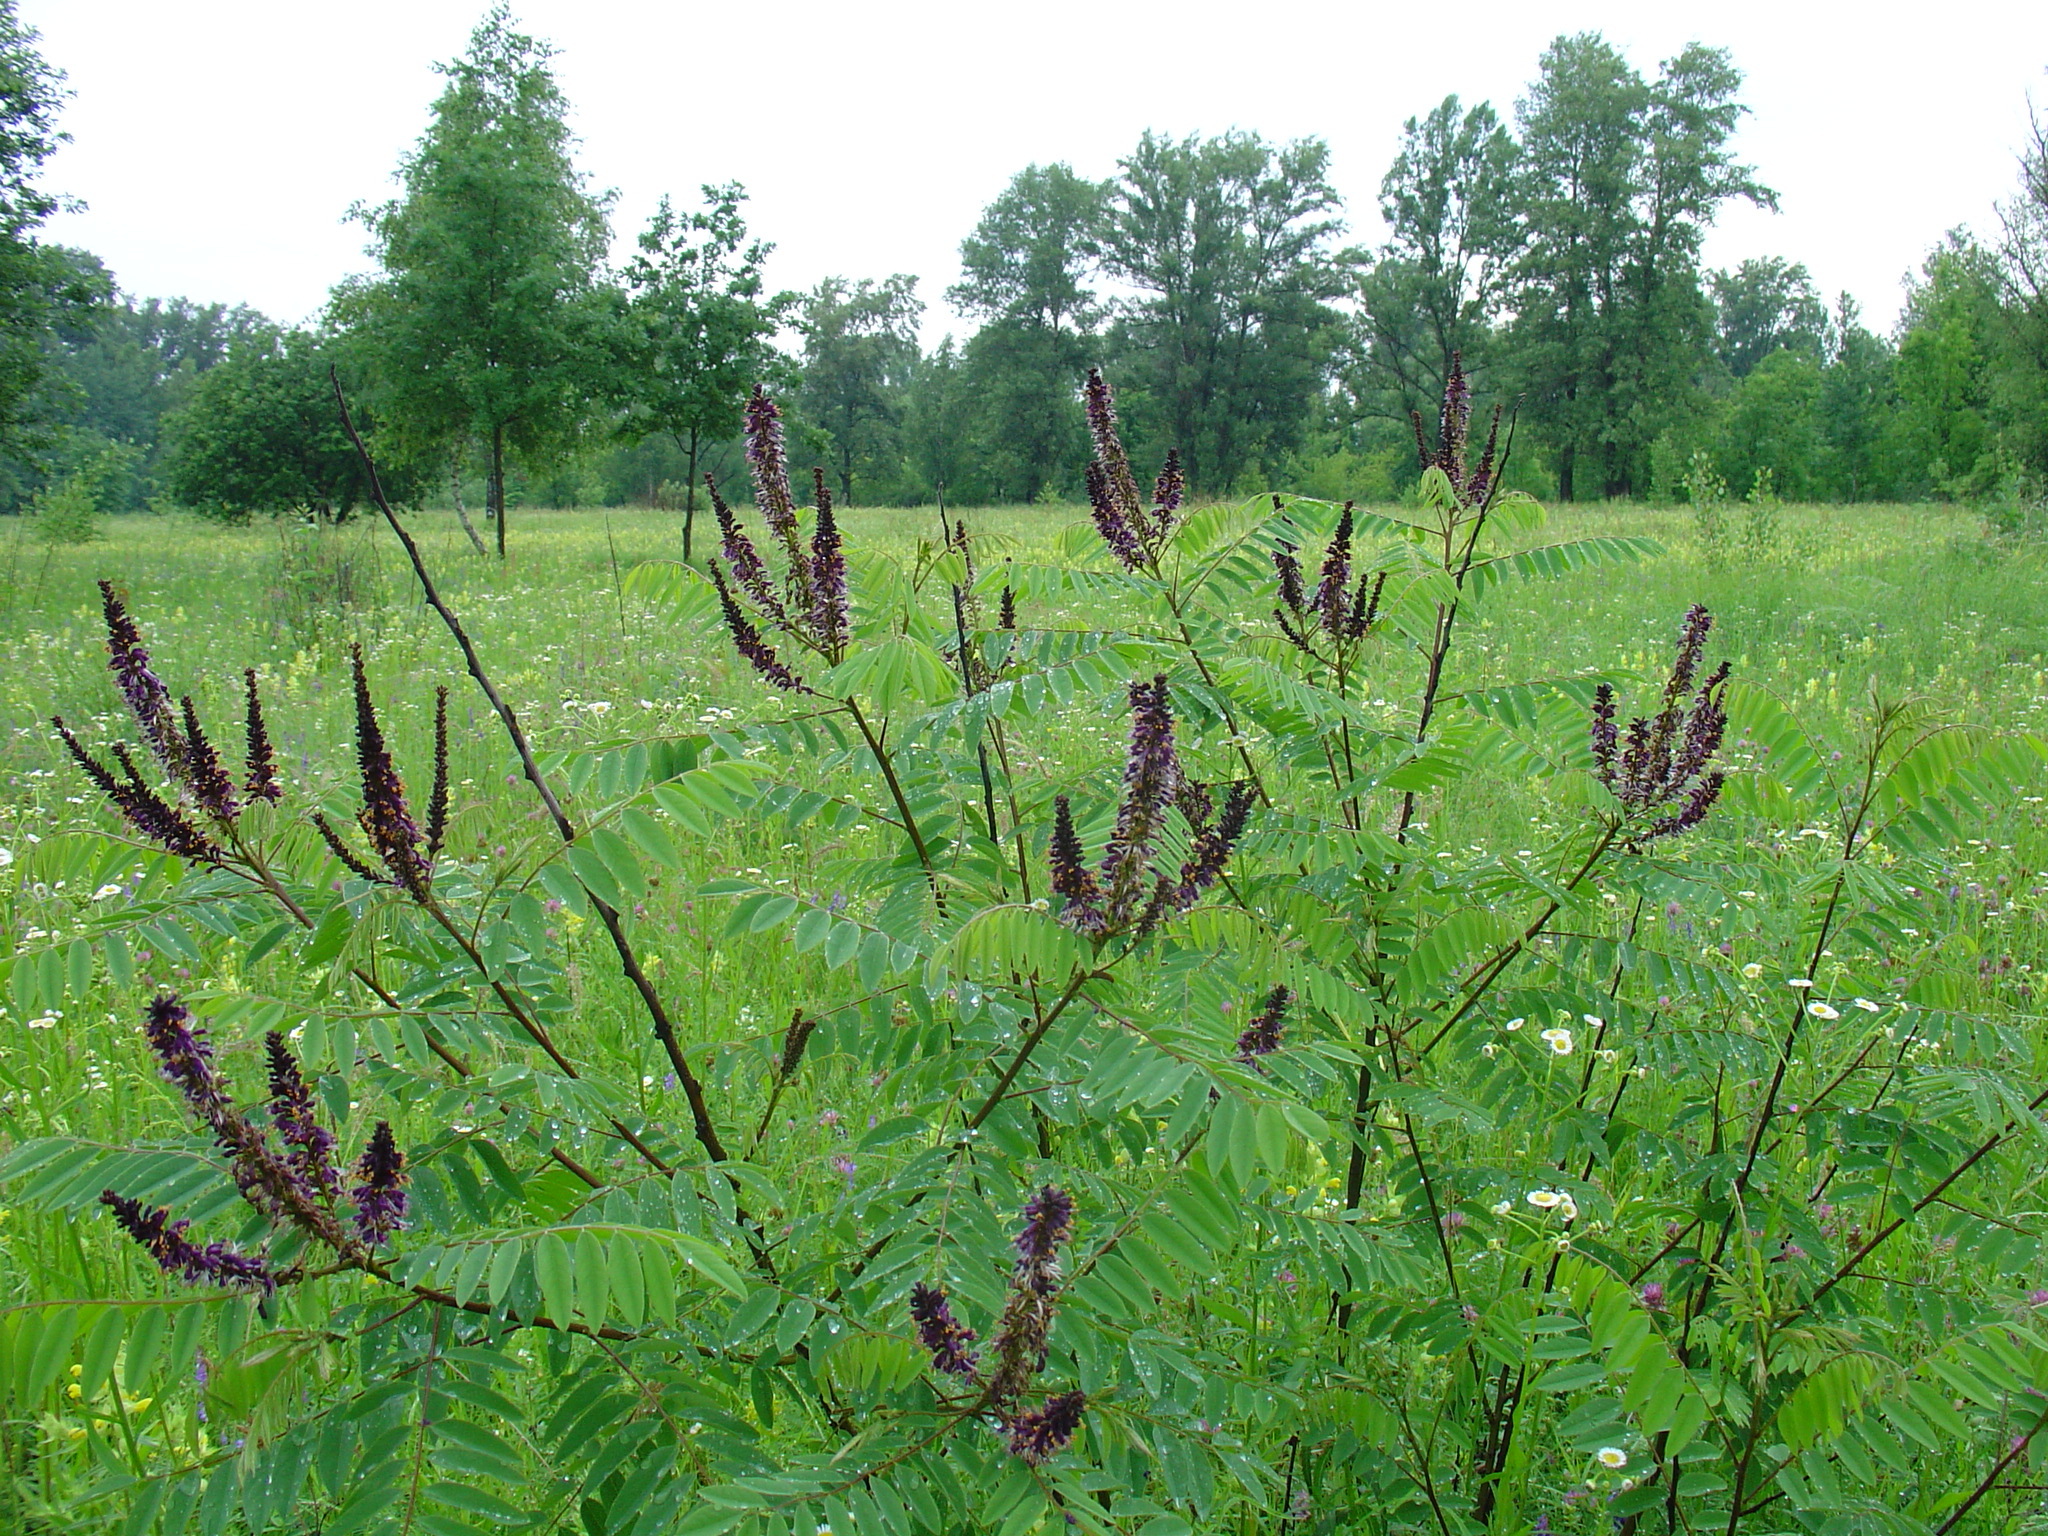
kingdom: Plantae
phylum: Tracheophyta
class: Magnoliopsida
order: Fabales
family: Fabaceae
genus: Amorpha
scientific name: Amorpha fruticosa
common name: False indigo
